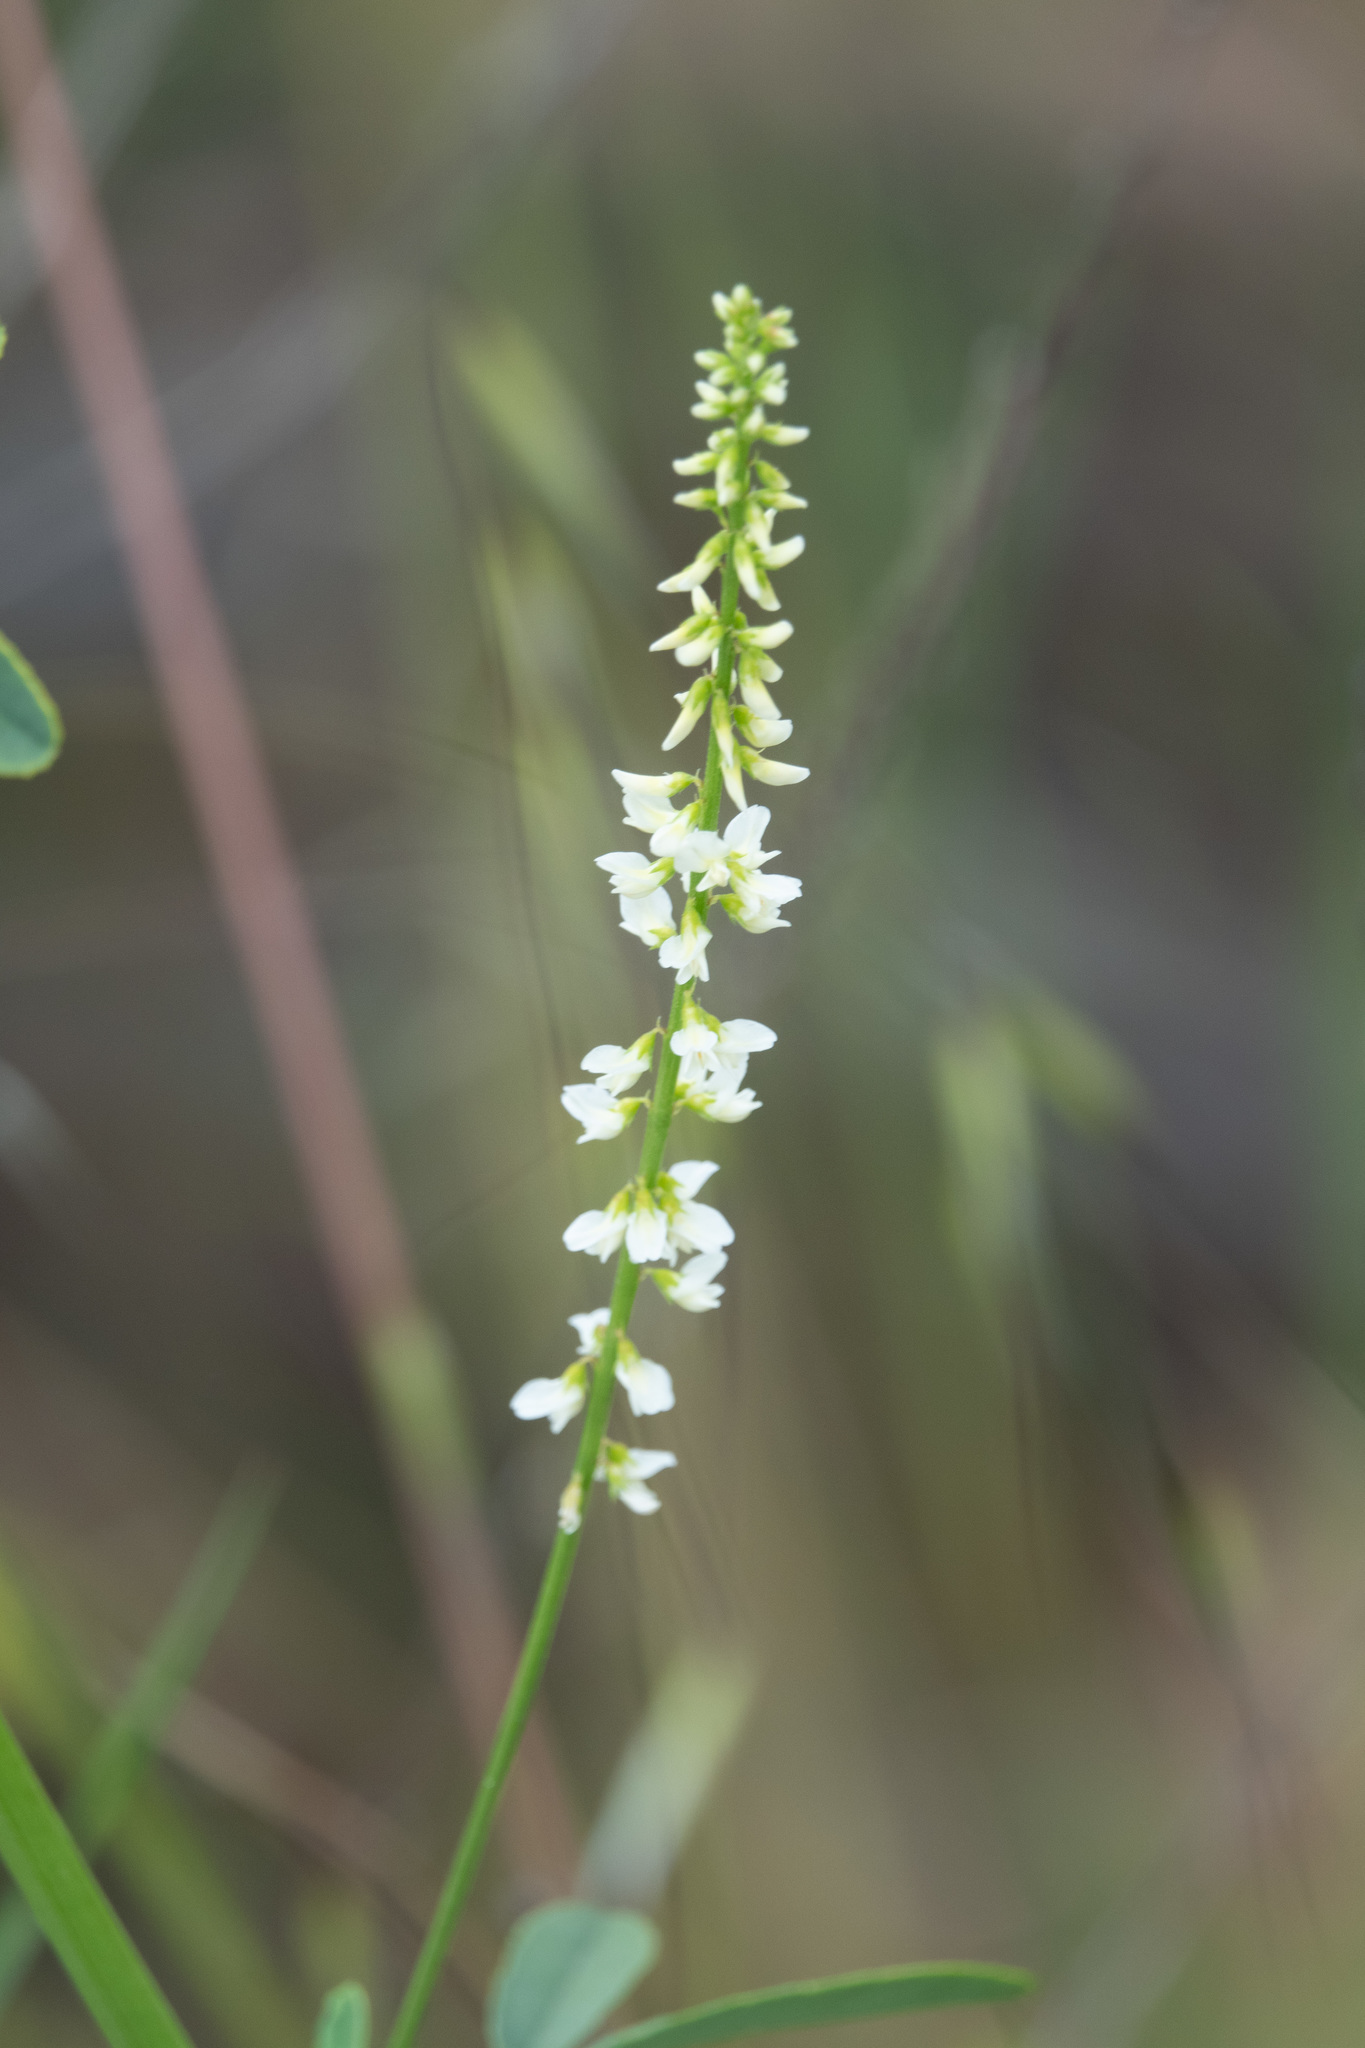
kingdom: Plantae
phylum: Tracheophyta
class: Magnoliopsida
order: Fabales
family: Fabaceae
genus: Melilotus
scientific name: Melilotus albus
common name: White melilot
